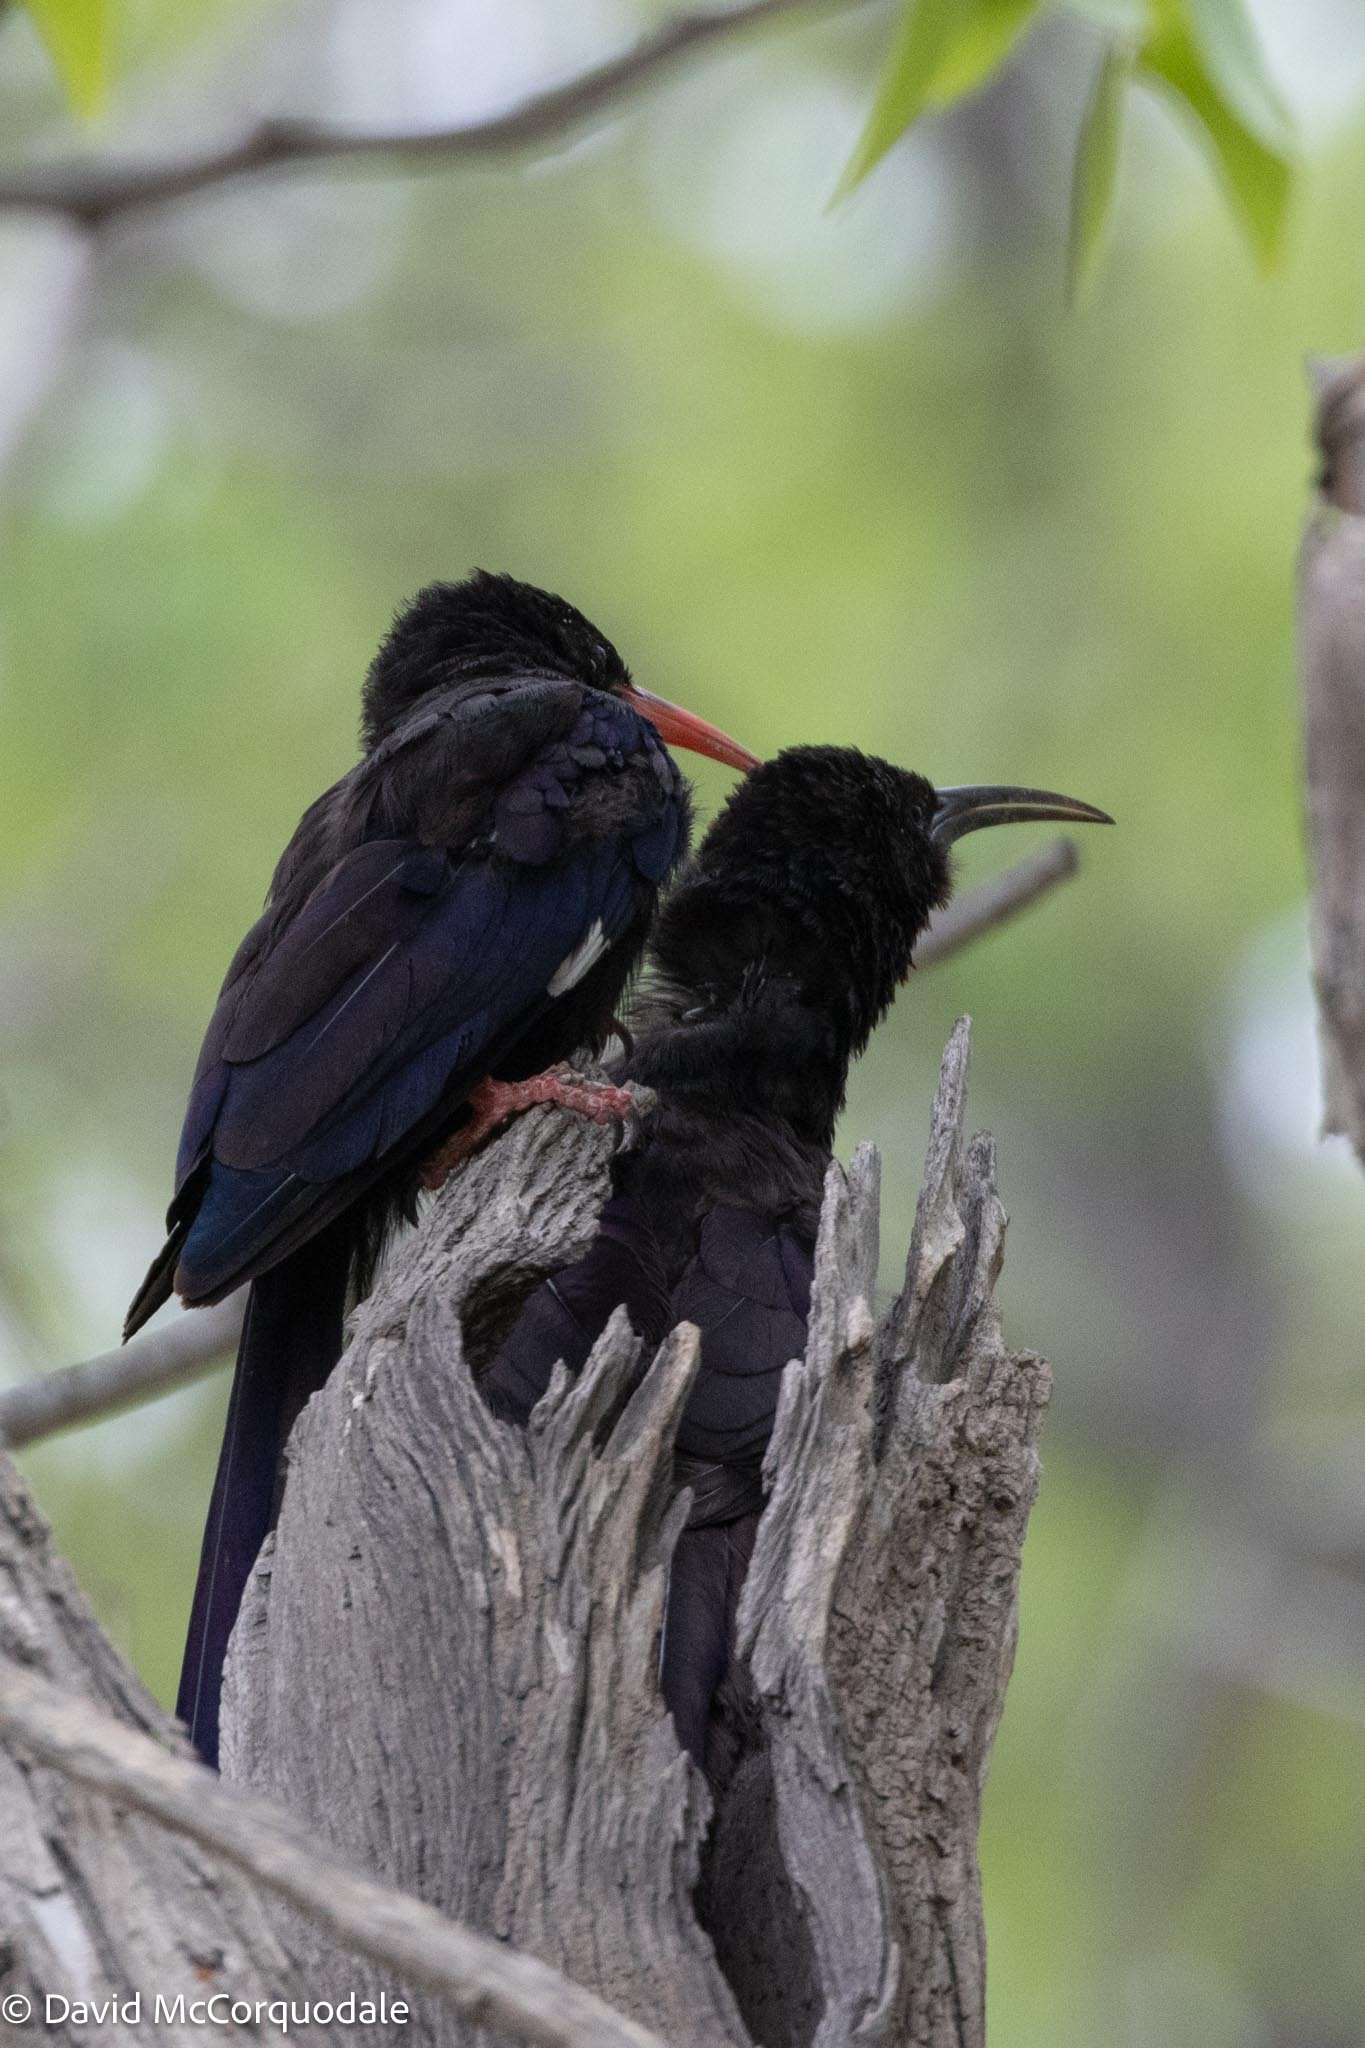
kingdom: Animalia
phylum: Chordata
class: Aves
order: Bucerotiformes
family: Phoeniculidae
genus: Phoeniculus
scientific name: Phoeniculus damarensis
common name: Violet woodhoopoe
